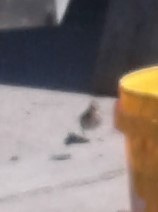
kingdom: Animalia
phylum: Chordata
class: Aves
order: Passeriformes
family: Turdidae
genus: Turdus
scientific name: Turdus philomelos
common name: Song thrush
